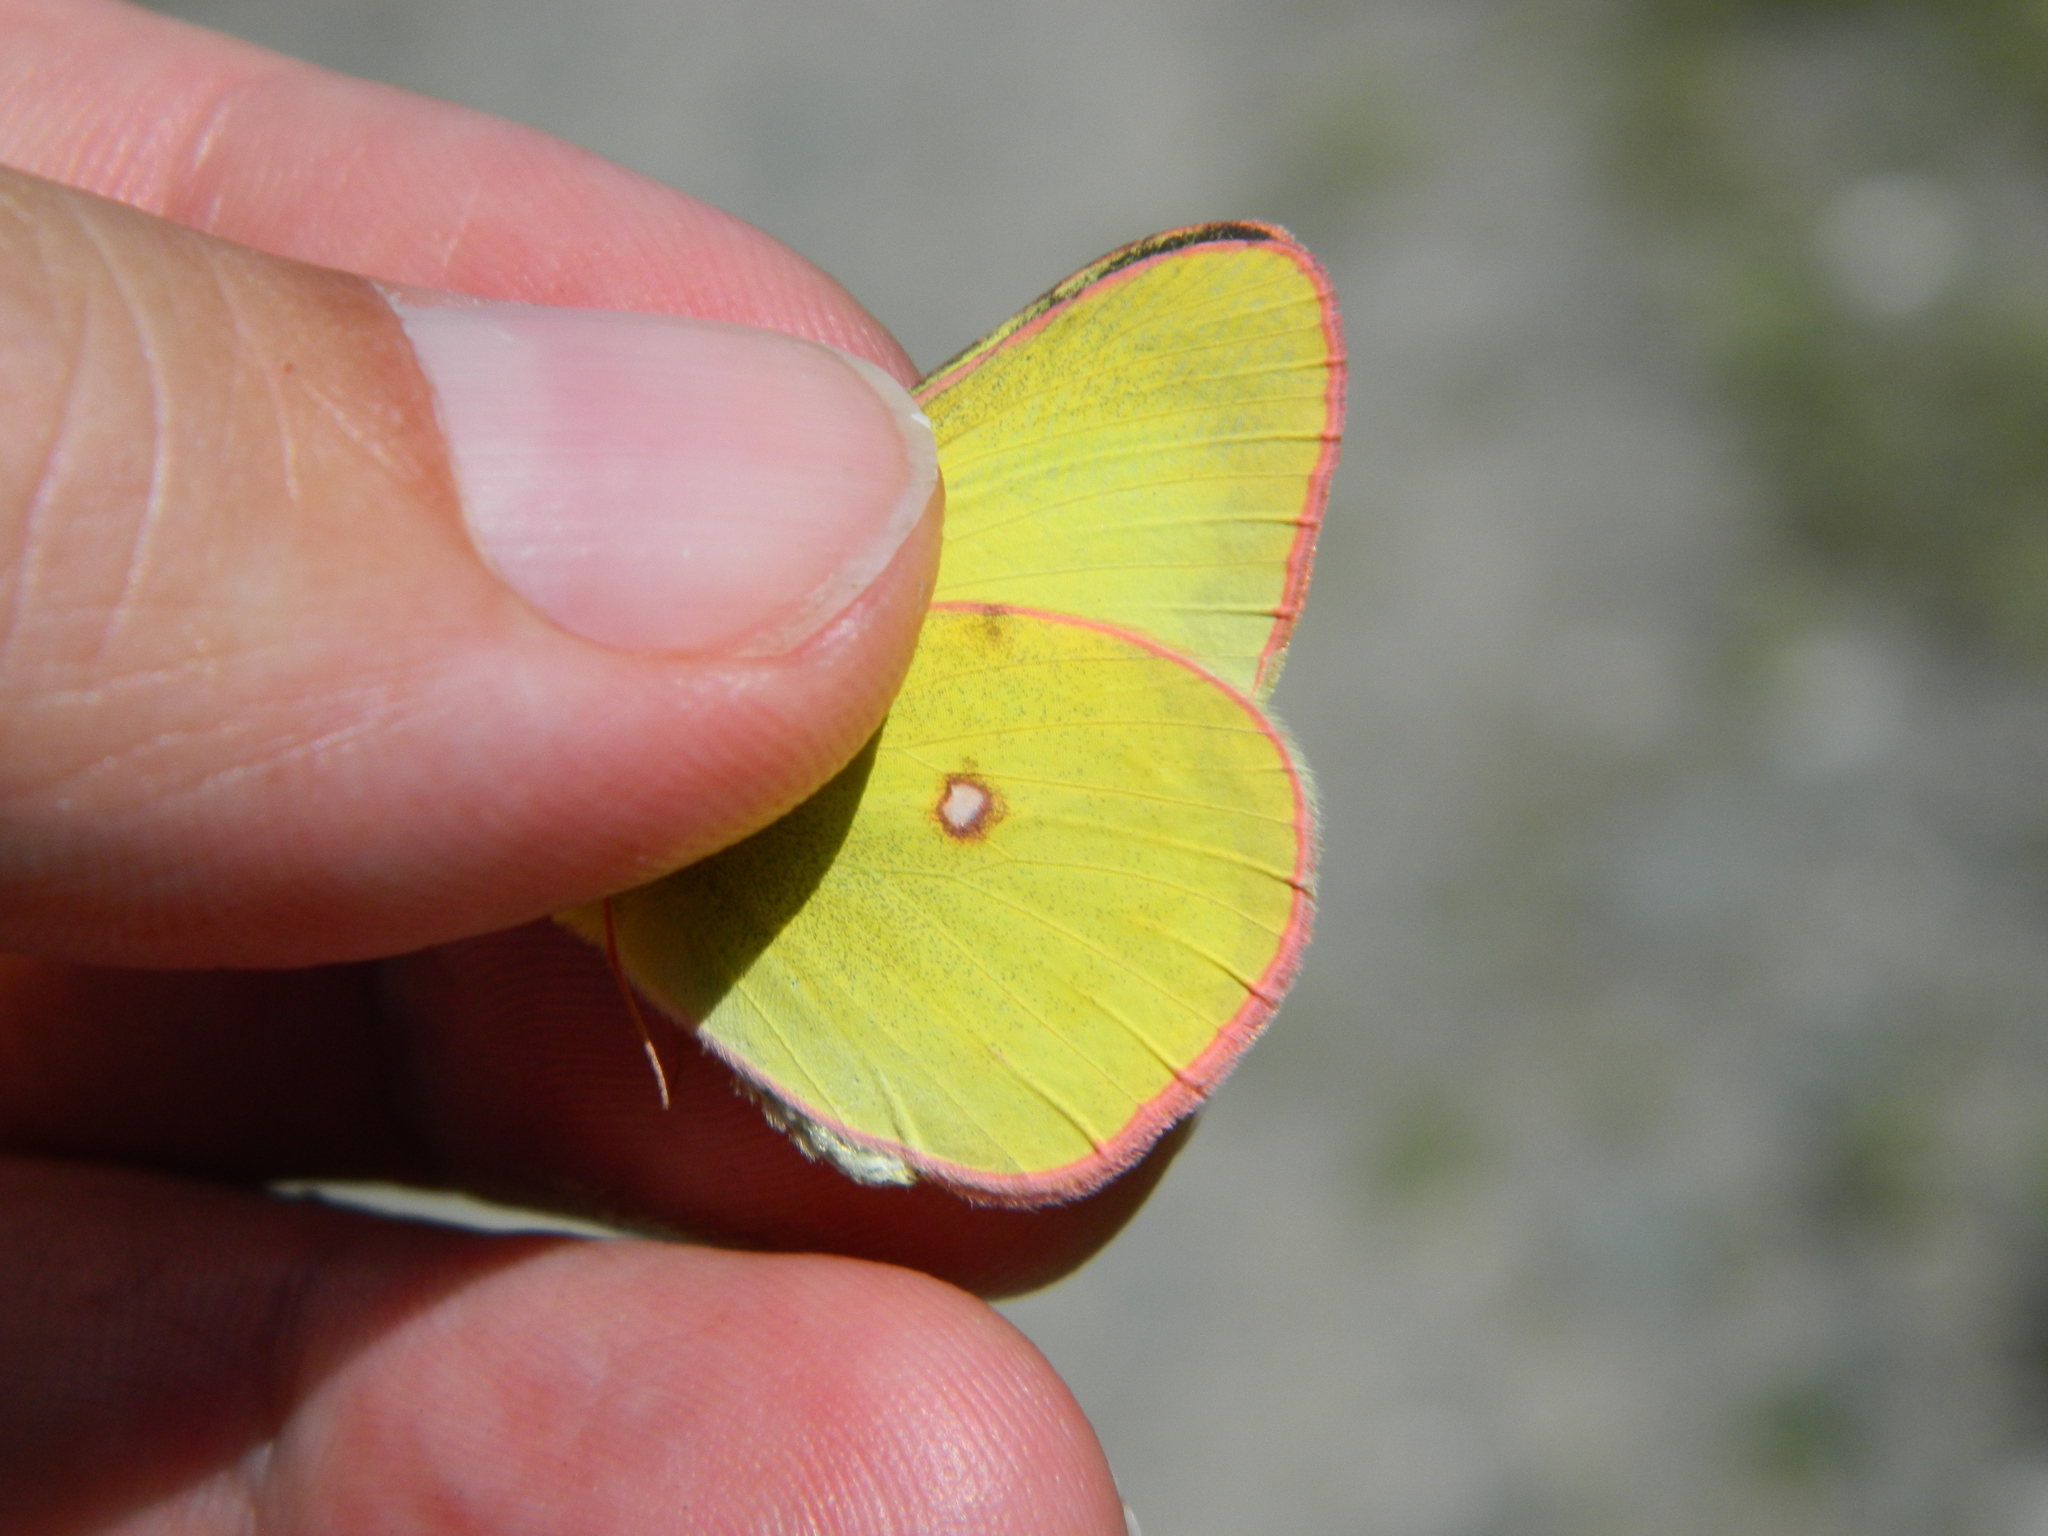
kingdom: Animalia
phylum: Arthropoda
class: Insecta
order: Lepidoptera
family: Pieridae
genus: Colias
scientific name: Colias interior
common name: Pink-edged sulphur
